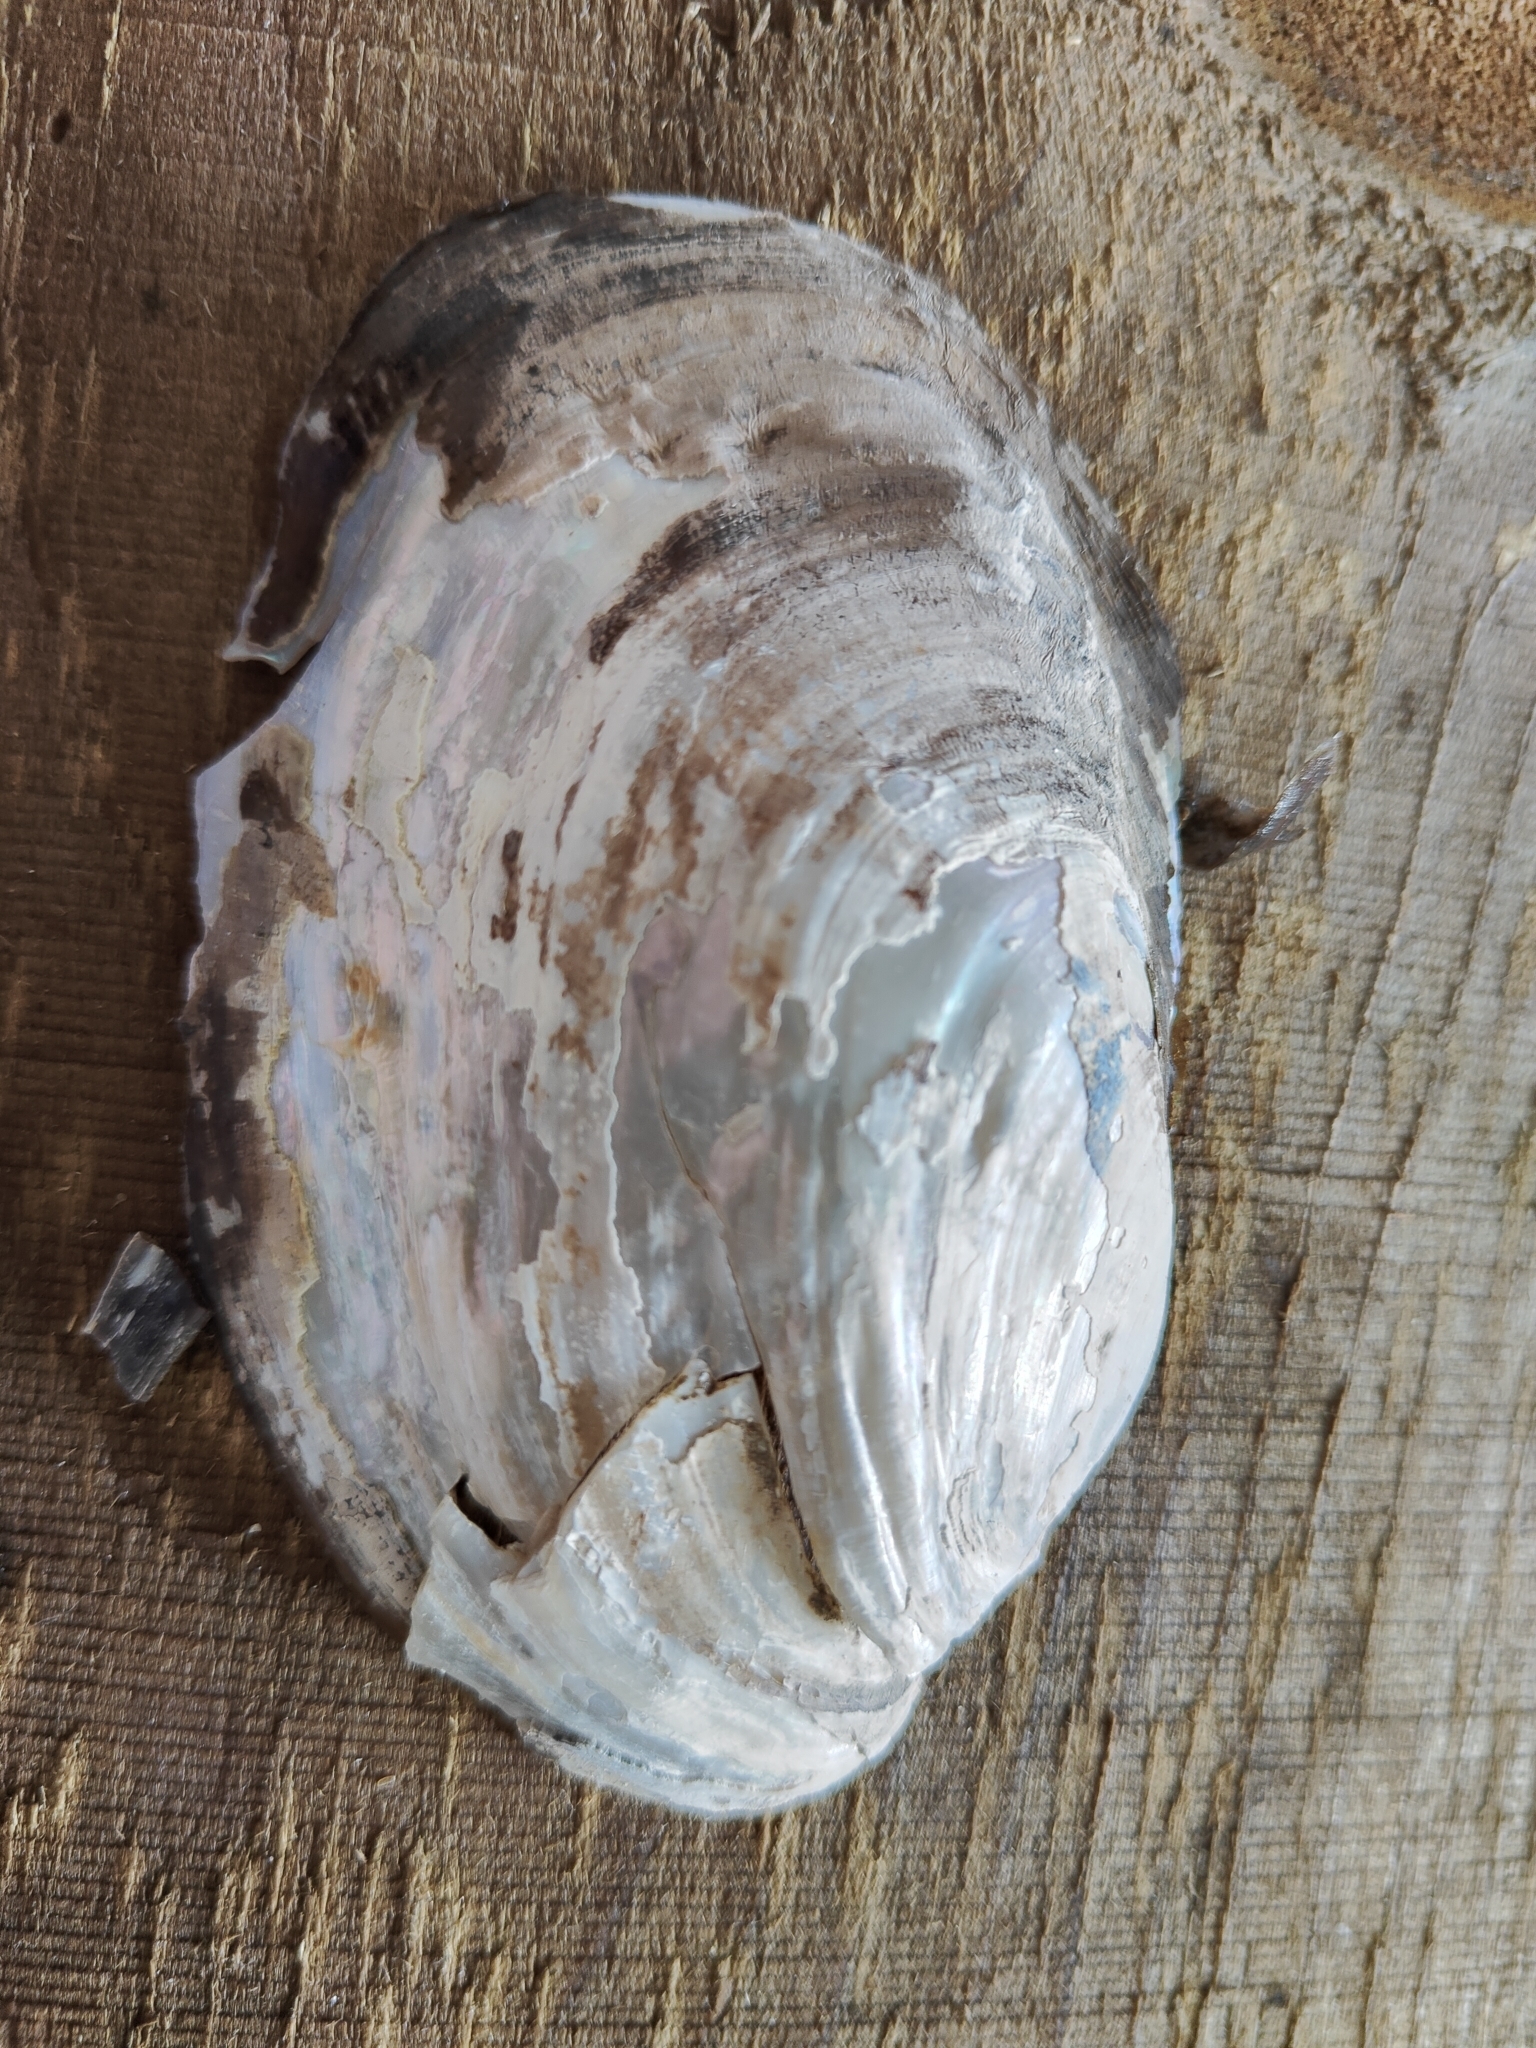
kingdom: Animalia
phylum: Mollusca
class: Bivalvia
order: Unionida
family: Unionidae
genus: Potamilus
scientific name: Potamilus fragilis
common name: Fragile papershell
